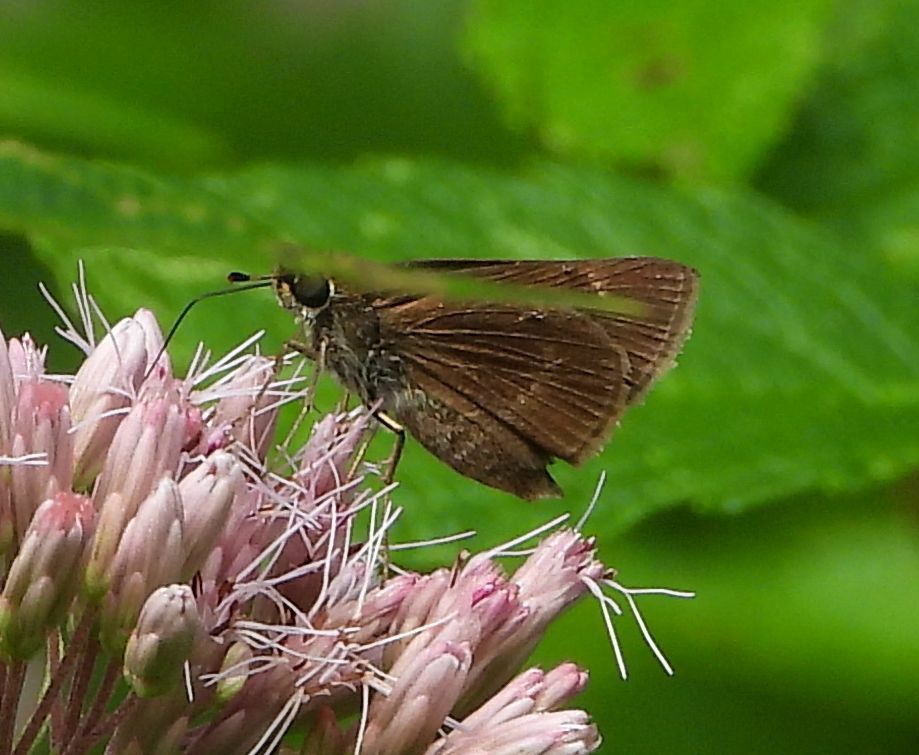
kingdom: Animalia
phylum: Arthropoda
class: Insecta
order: Lepidoptera
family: Hesperiidae
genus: Euphyes
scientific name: Euphyes vestris
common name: Dun skipper
